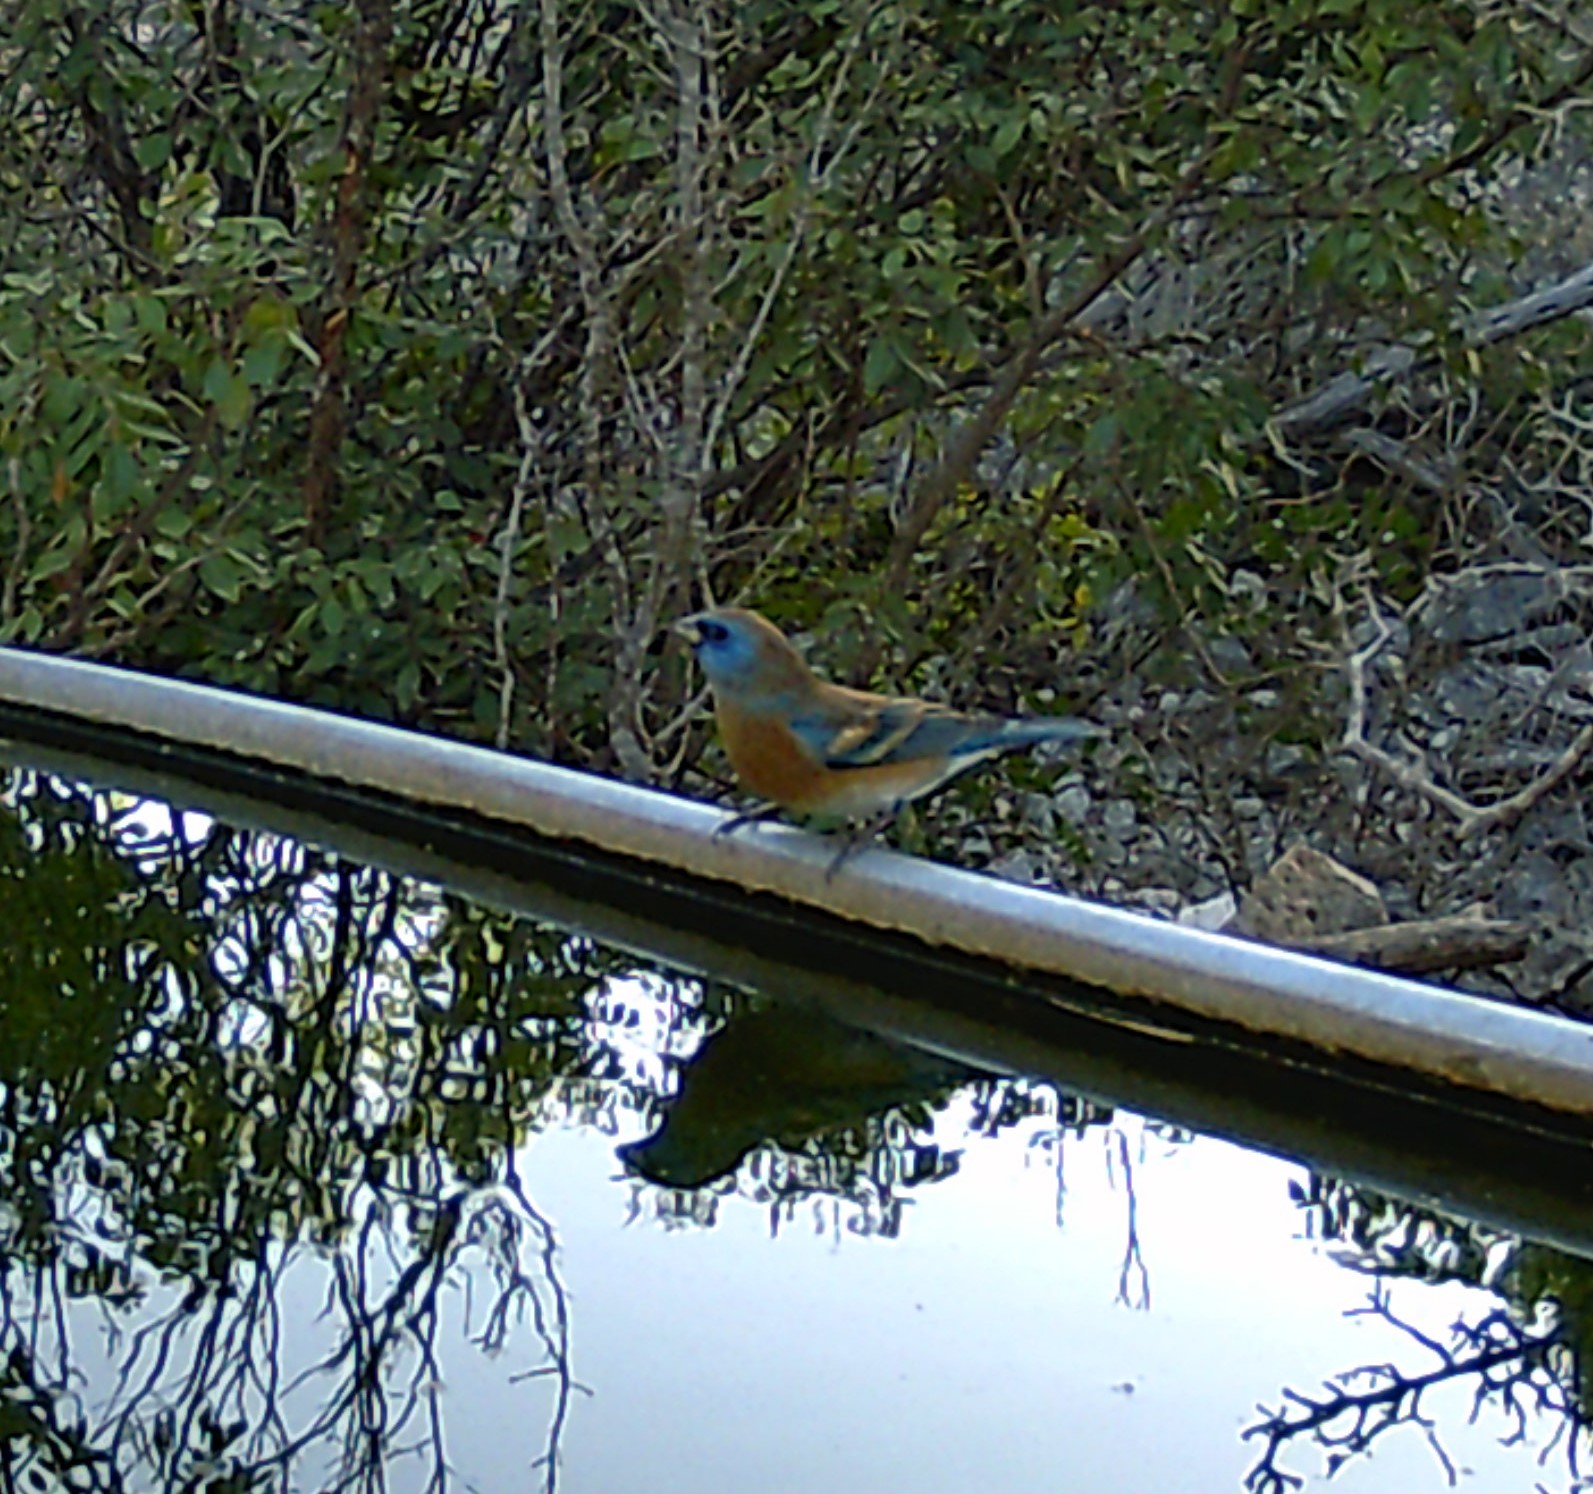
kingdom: Animalia
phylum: Chordata
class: Aves
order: Passeriformes
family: Cardinalidae
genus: Passerina
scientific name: Passerina amoena
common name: Lazuli bunting
